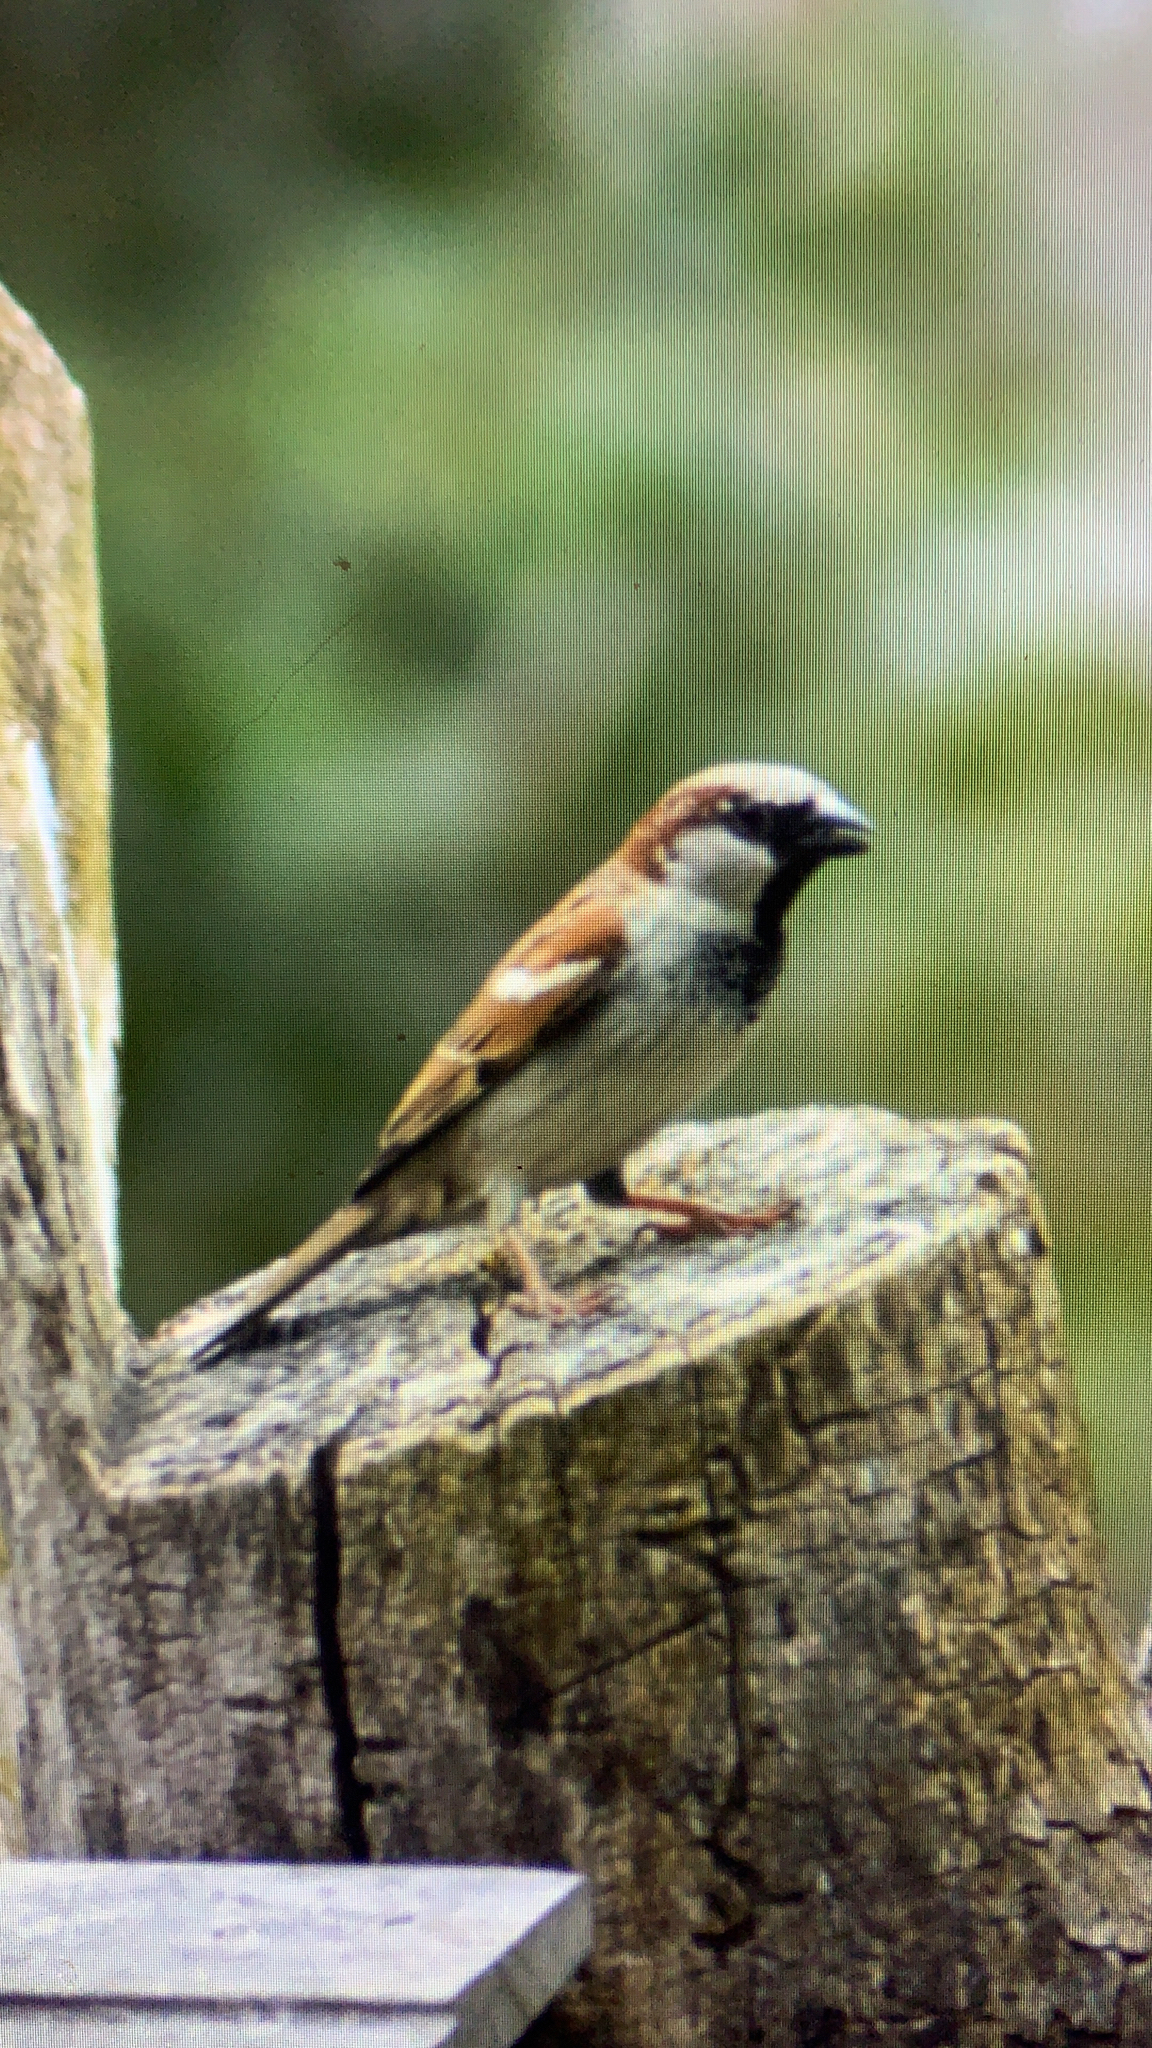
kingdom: Animalia
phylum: Chordata
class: Aves
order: Passeriformes
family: Passeridae
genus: Passer
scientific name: Passer domesticus
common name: House sparrow
